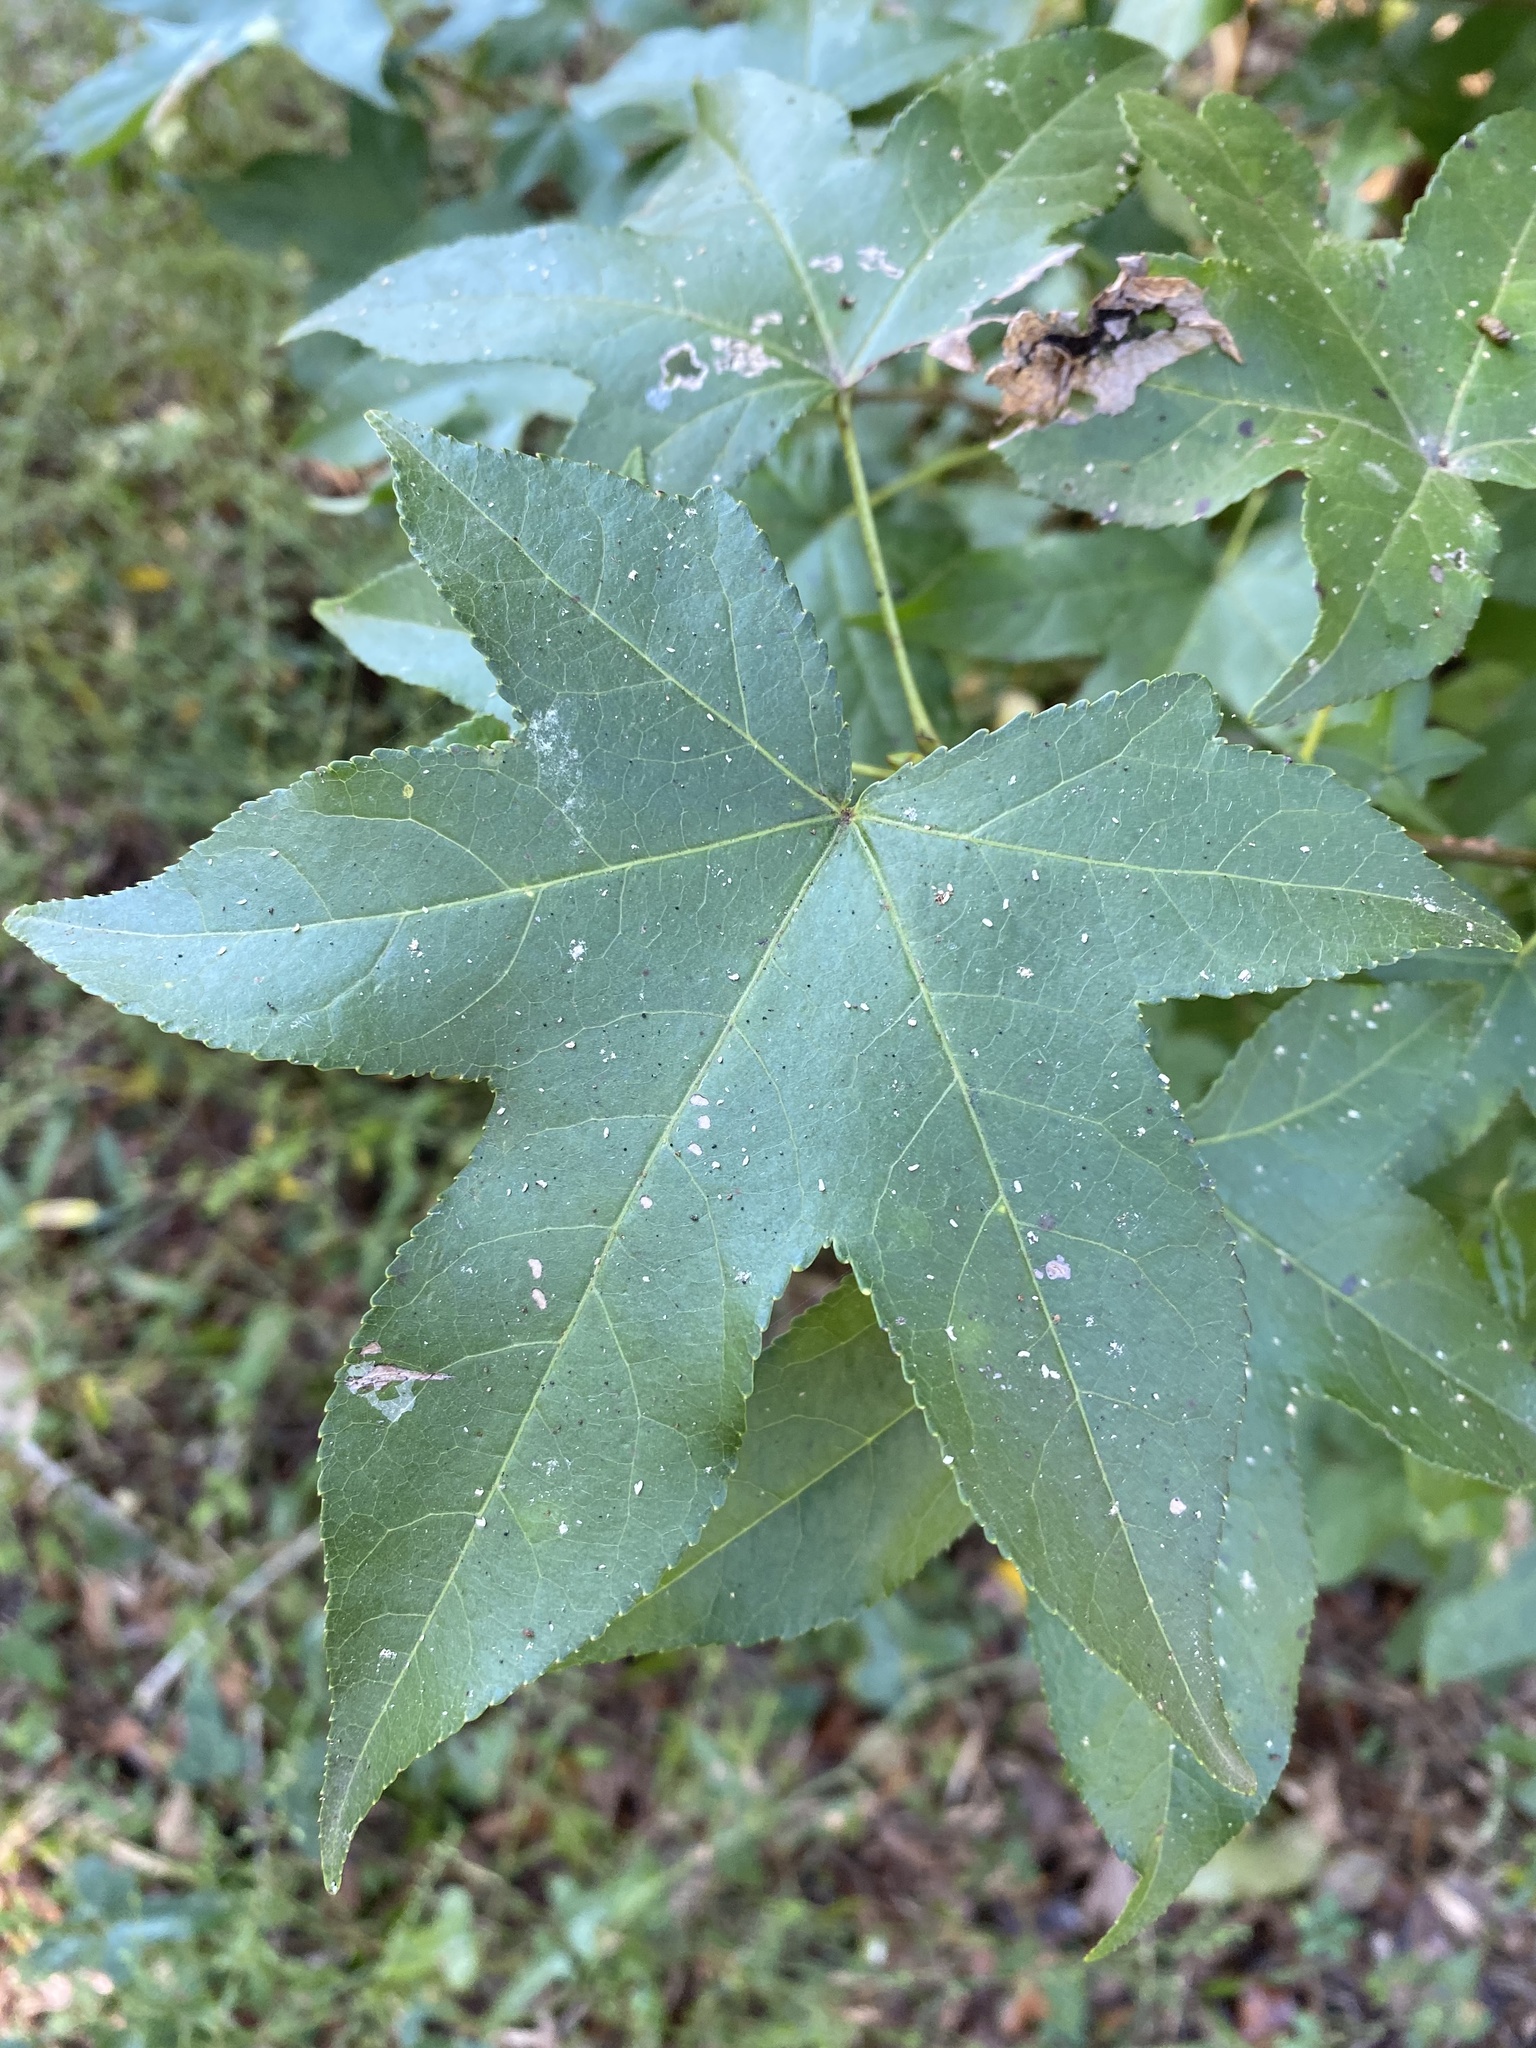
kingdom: Plantae
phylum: Tracheophyta
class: Magnoliopsida
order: Saxifragales
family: Altingiaceae
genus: Liquidambar
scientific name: Liquidambar styraciflua
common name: Sweet gum
